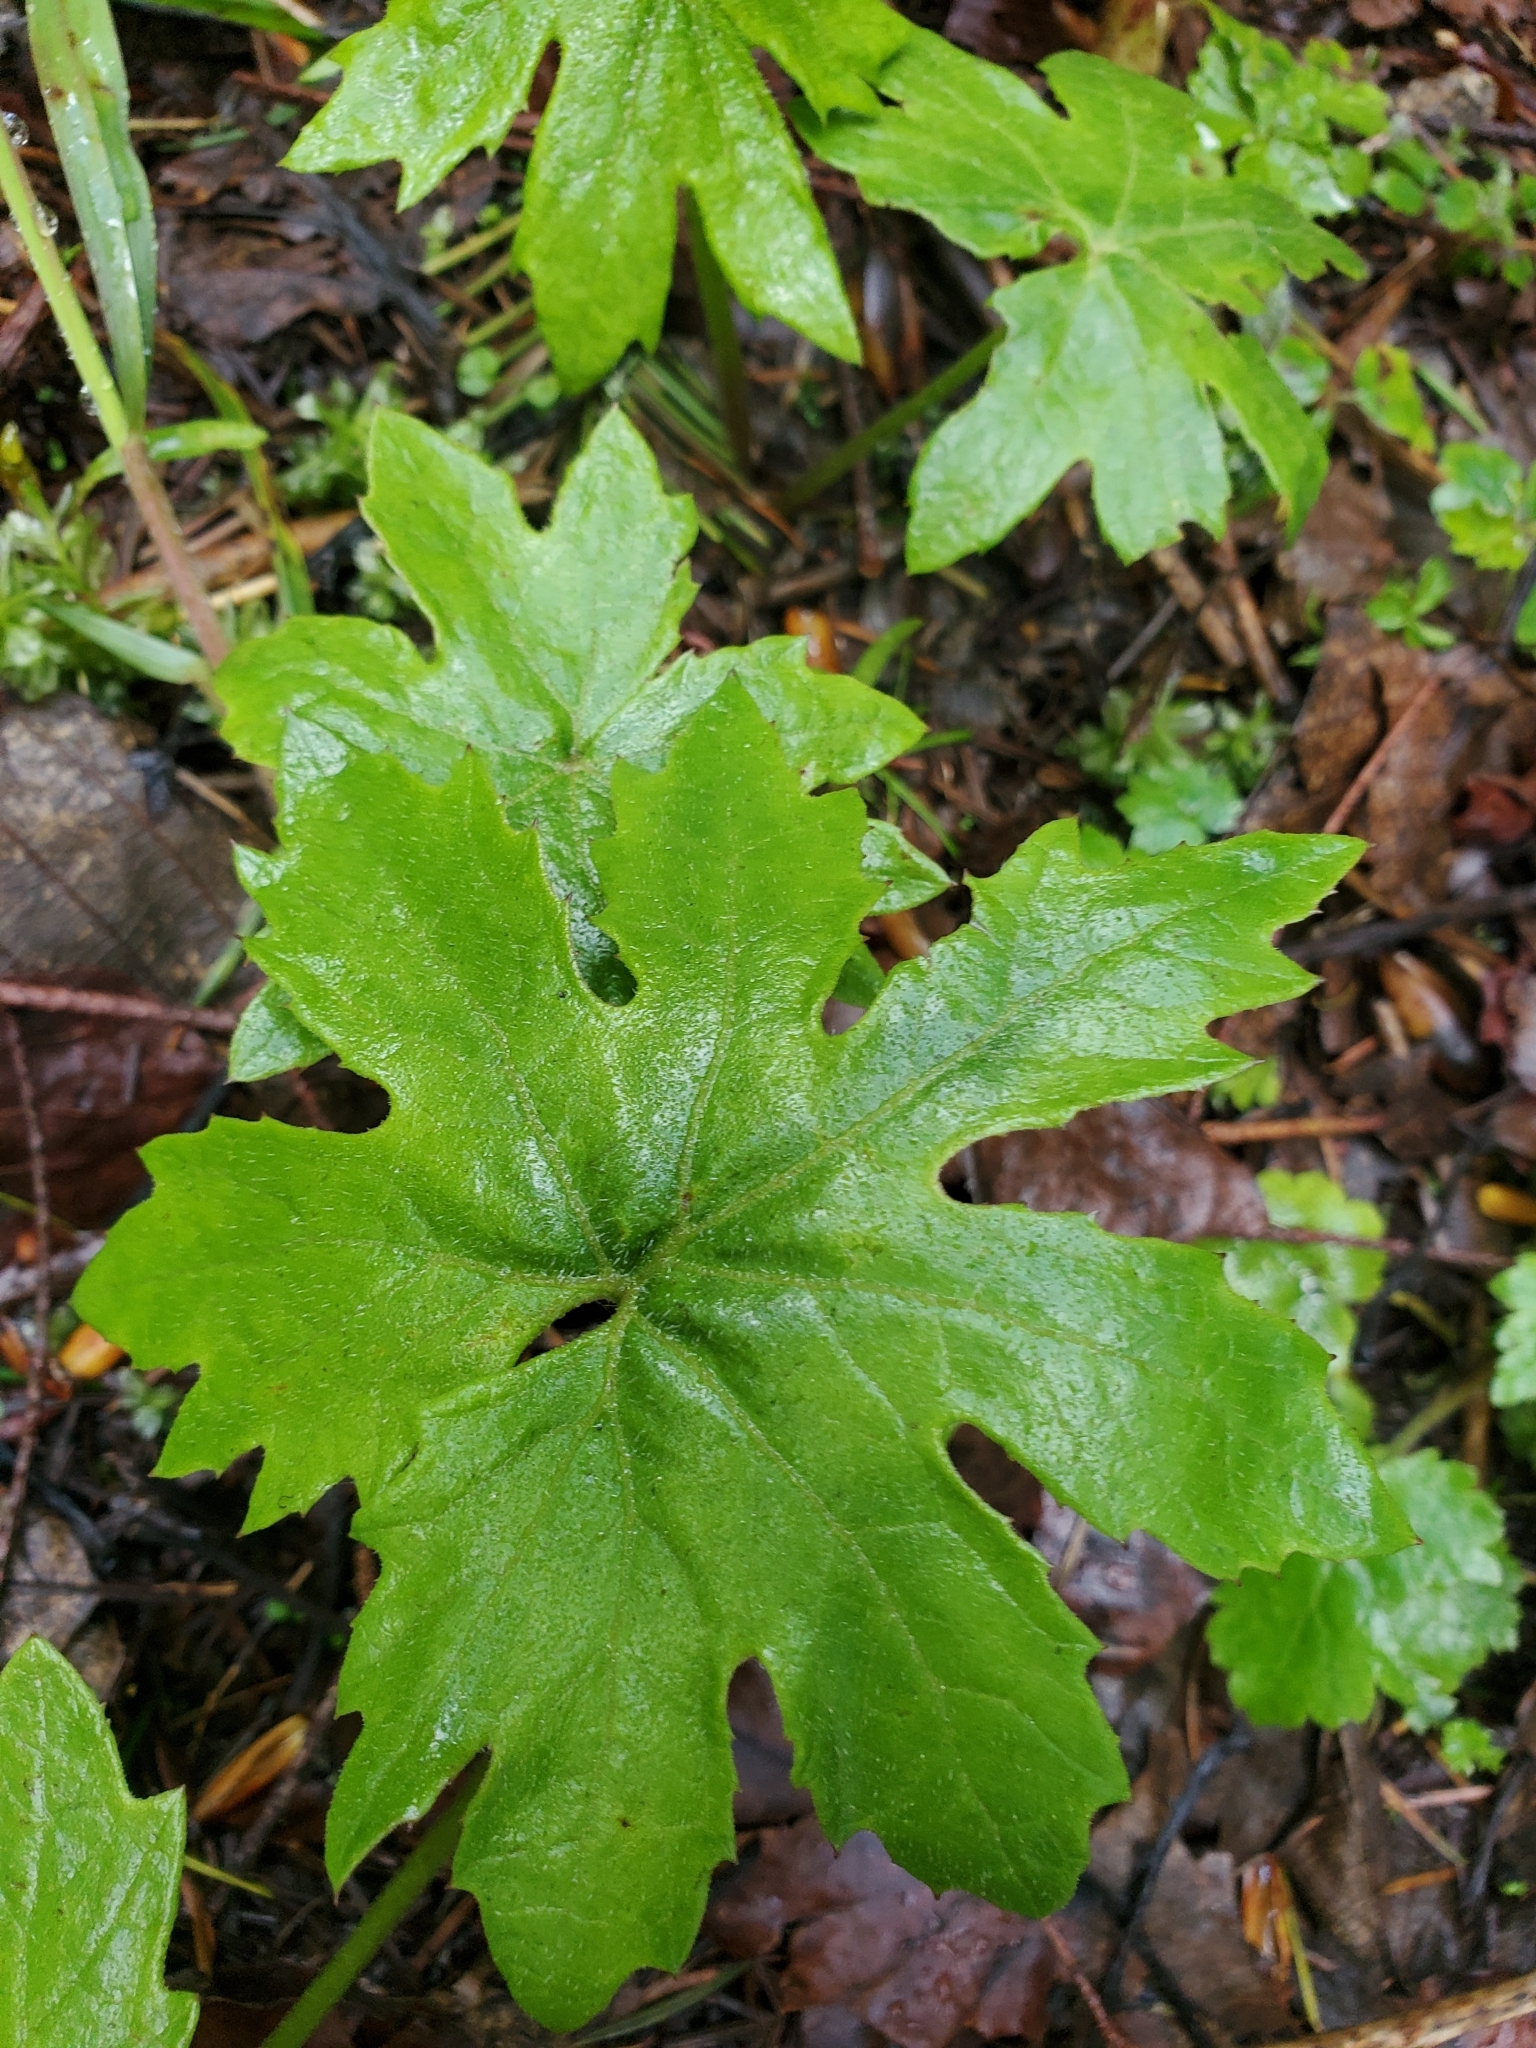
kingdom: Plantae
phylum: Tracheophyta
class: Magnoliopsida
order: Asterales
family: Asteraceae
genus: Petasites
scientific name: Petasites frigidus
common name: Arctic butterbur
